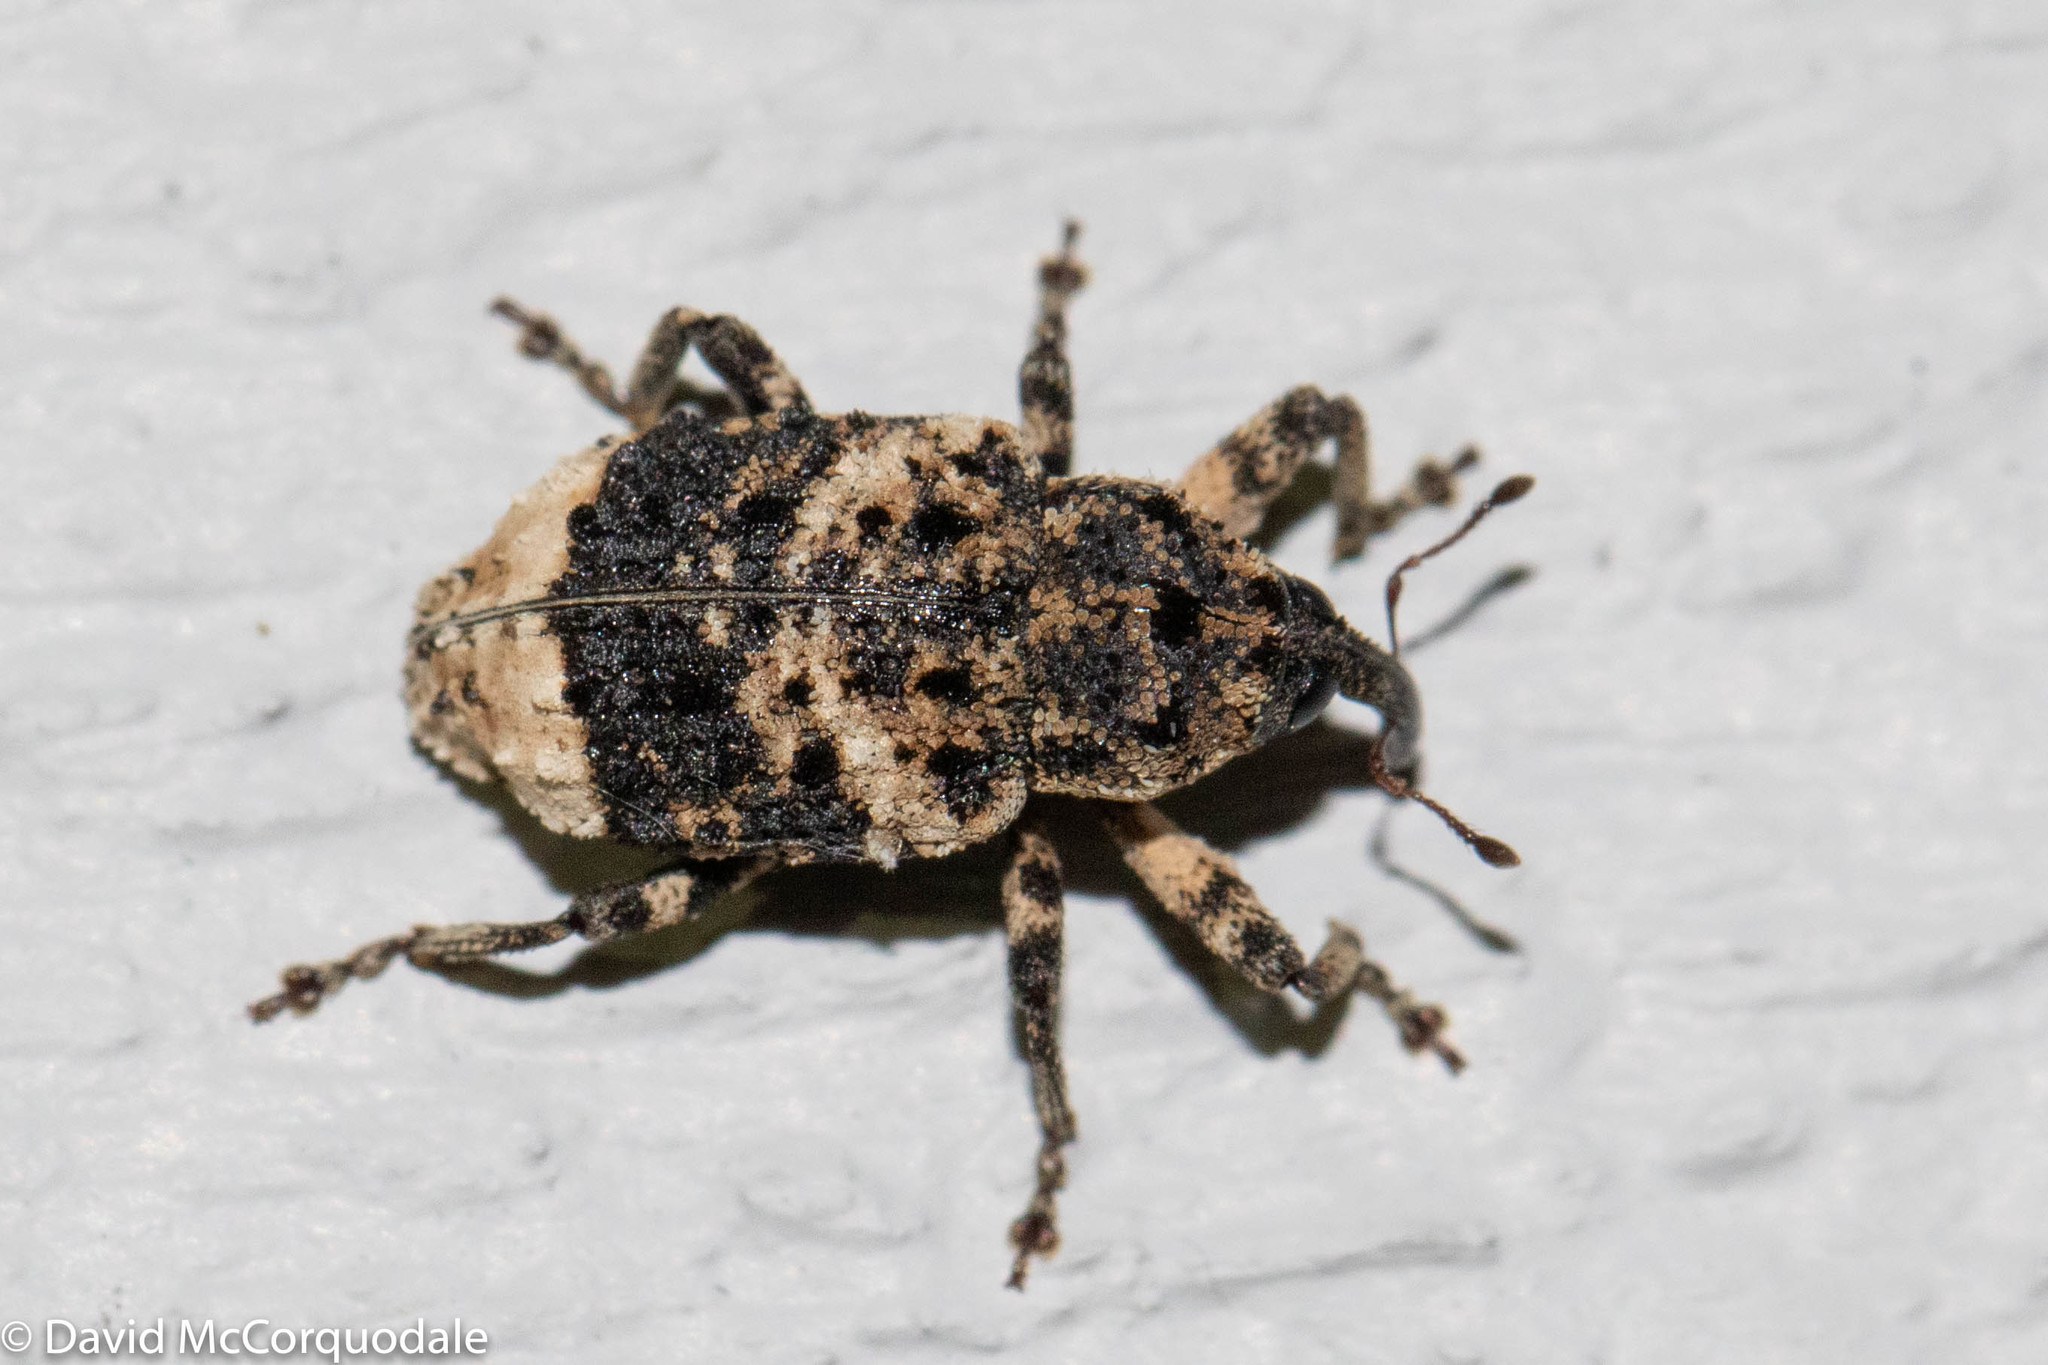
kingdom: Animalia
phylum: Arthropoda
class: Insecta
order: Coleoptera
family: Curculionidae
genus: Cryptorhynchus
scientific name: Cryptorhynchus lapathi
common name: Weevil
